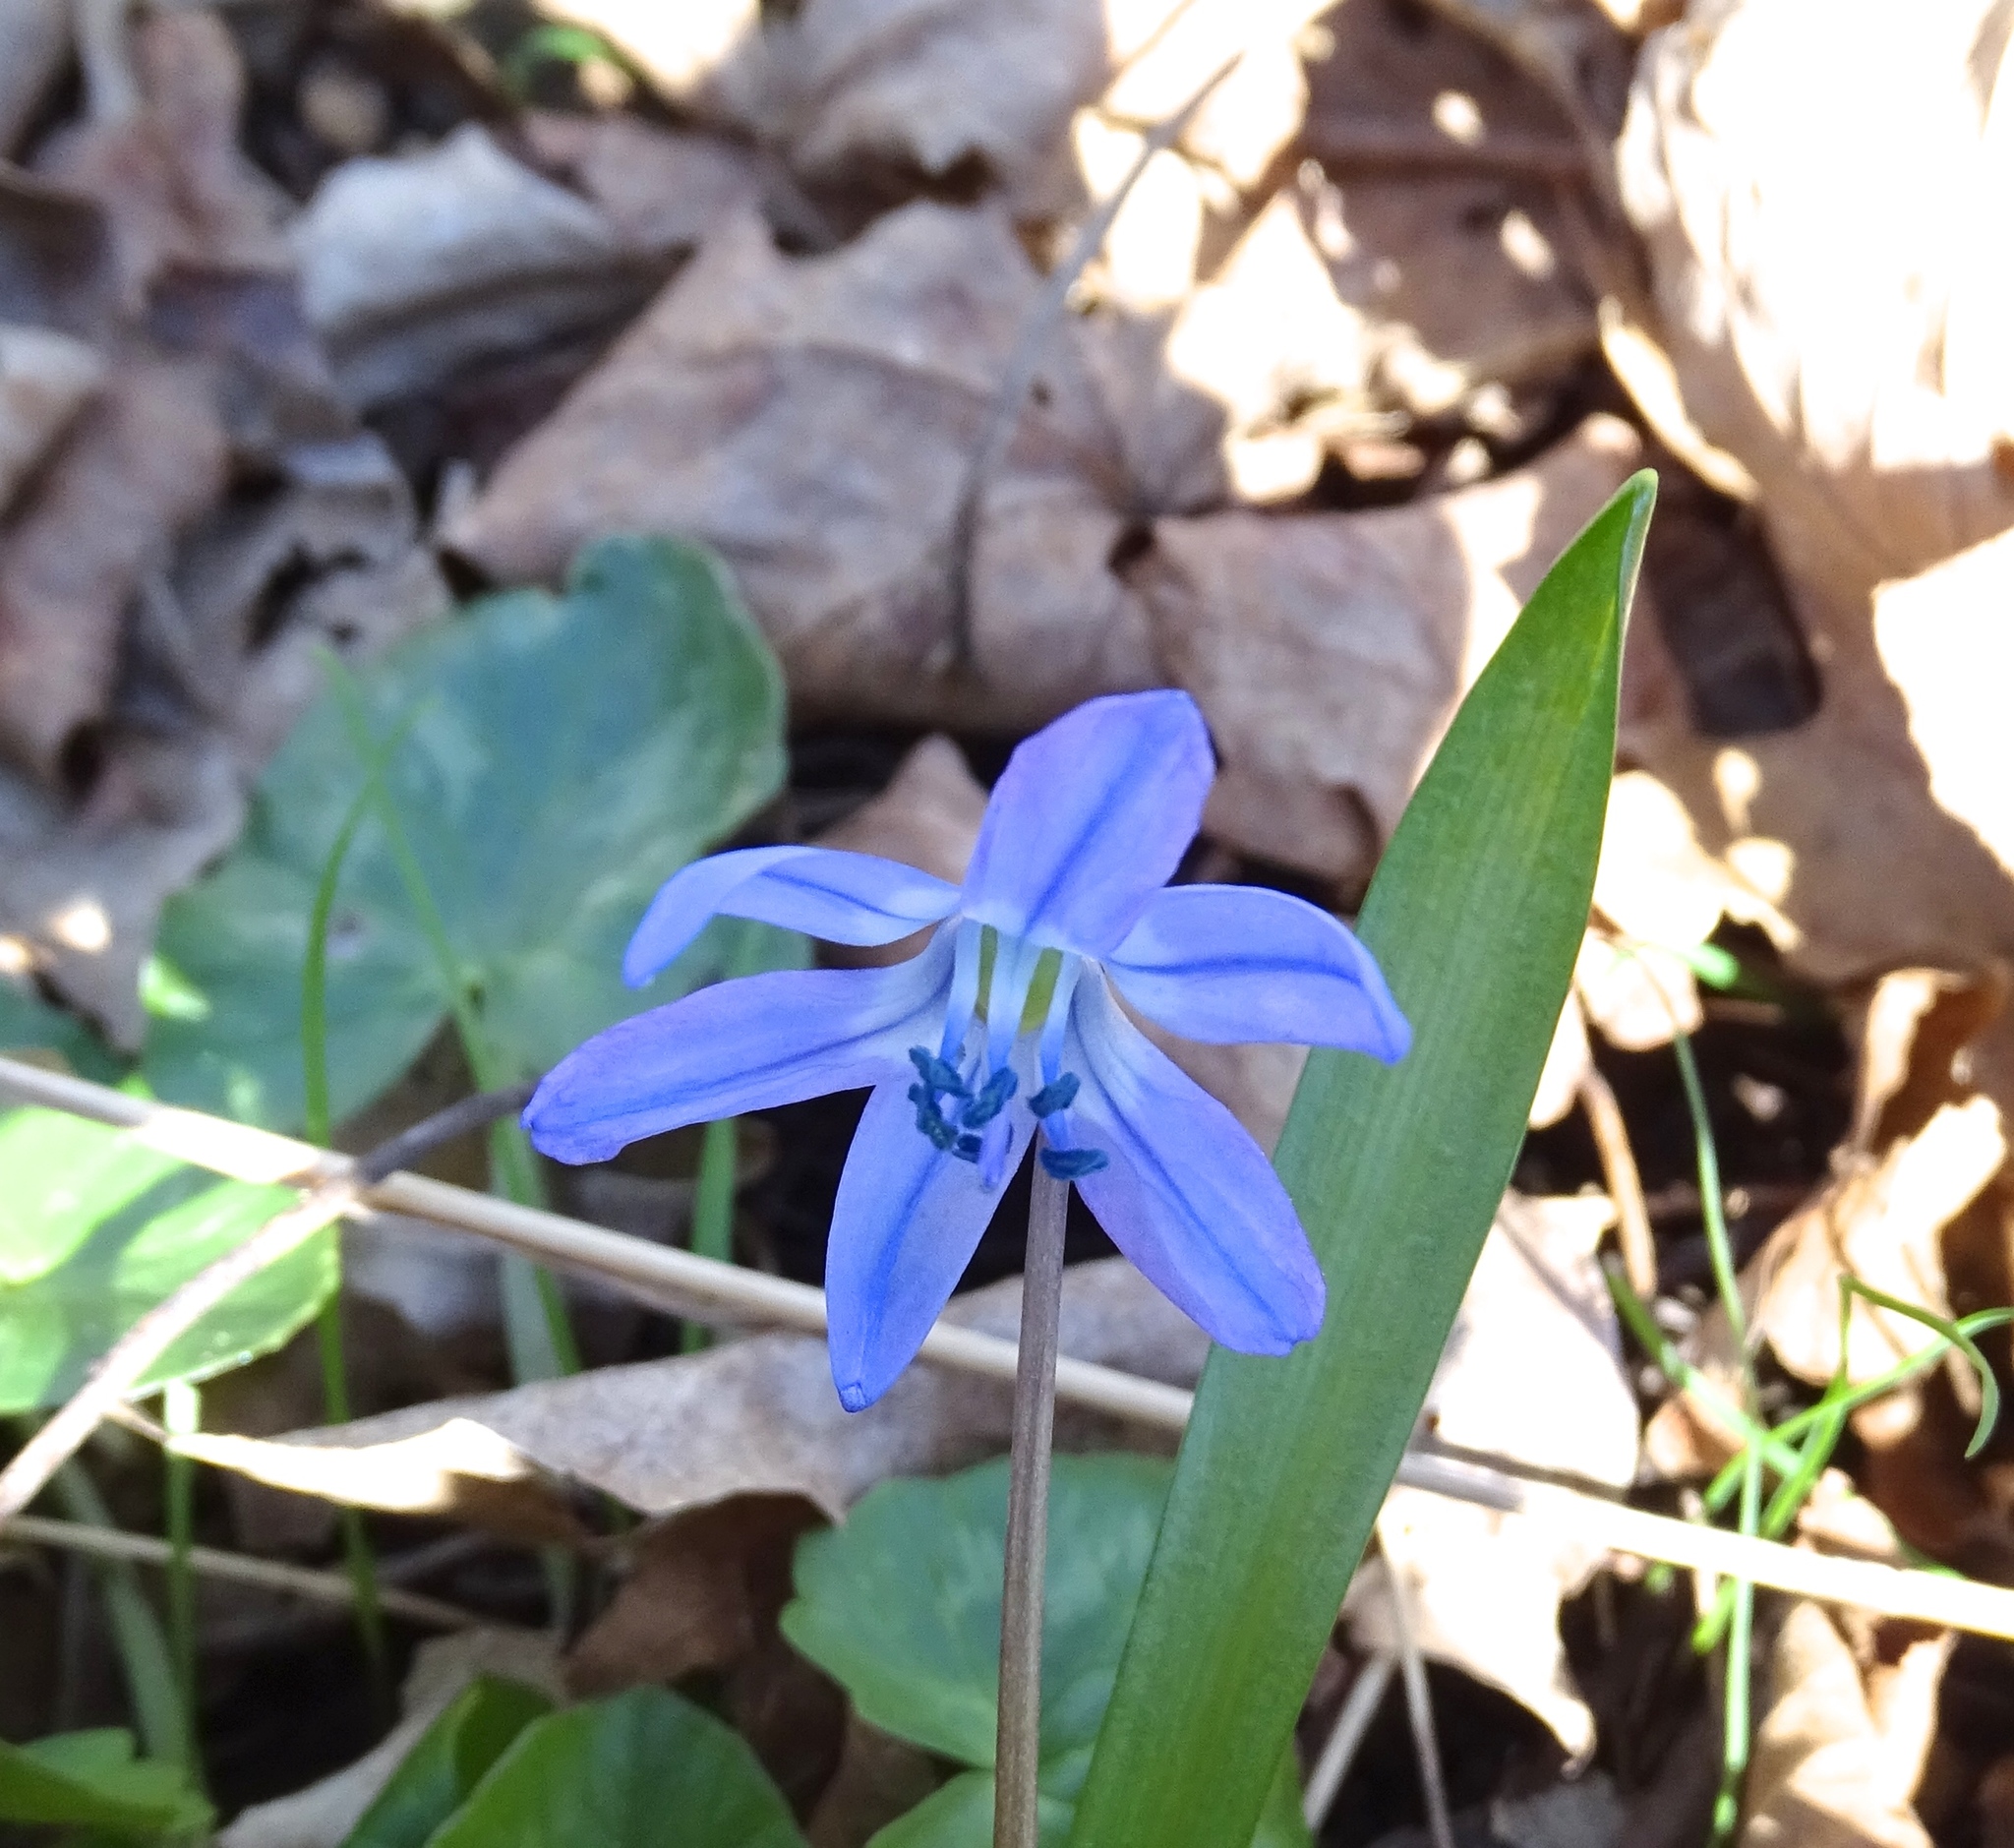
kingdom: Plantae
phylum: Tracheophyta
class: Liliopsida
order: Asparagales
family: Asparagaceae
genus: Scilla
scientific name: Scilla siberica
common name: Siberian squill
